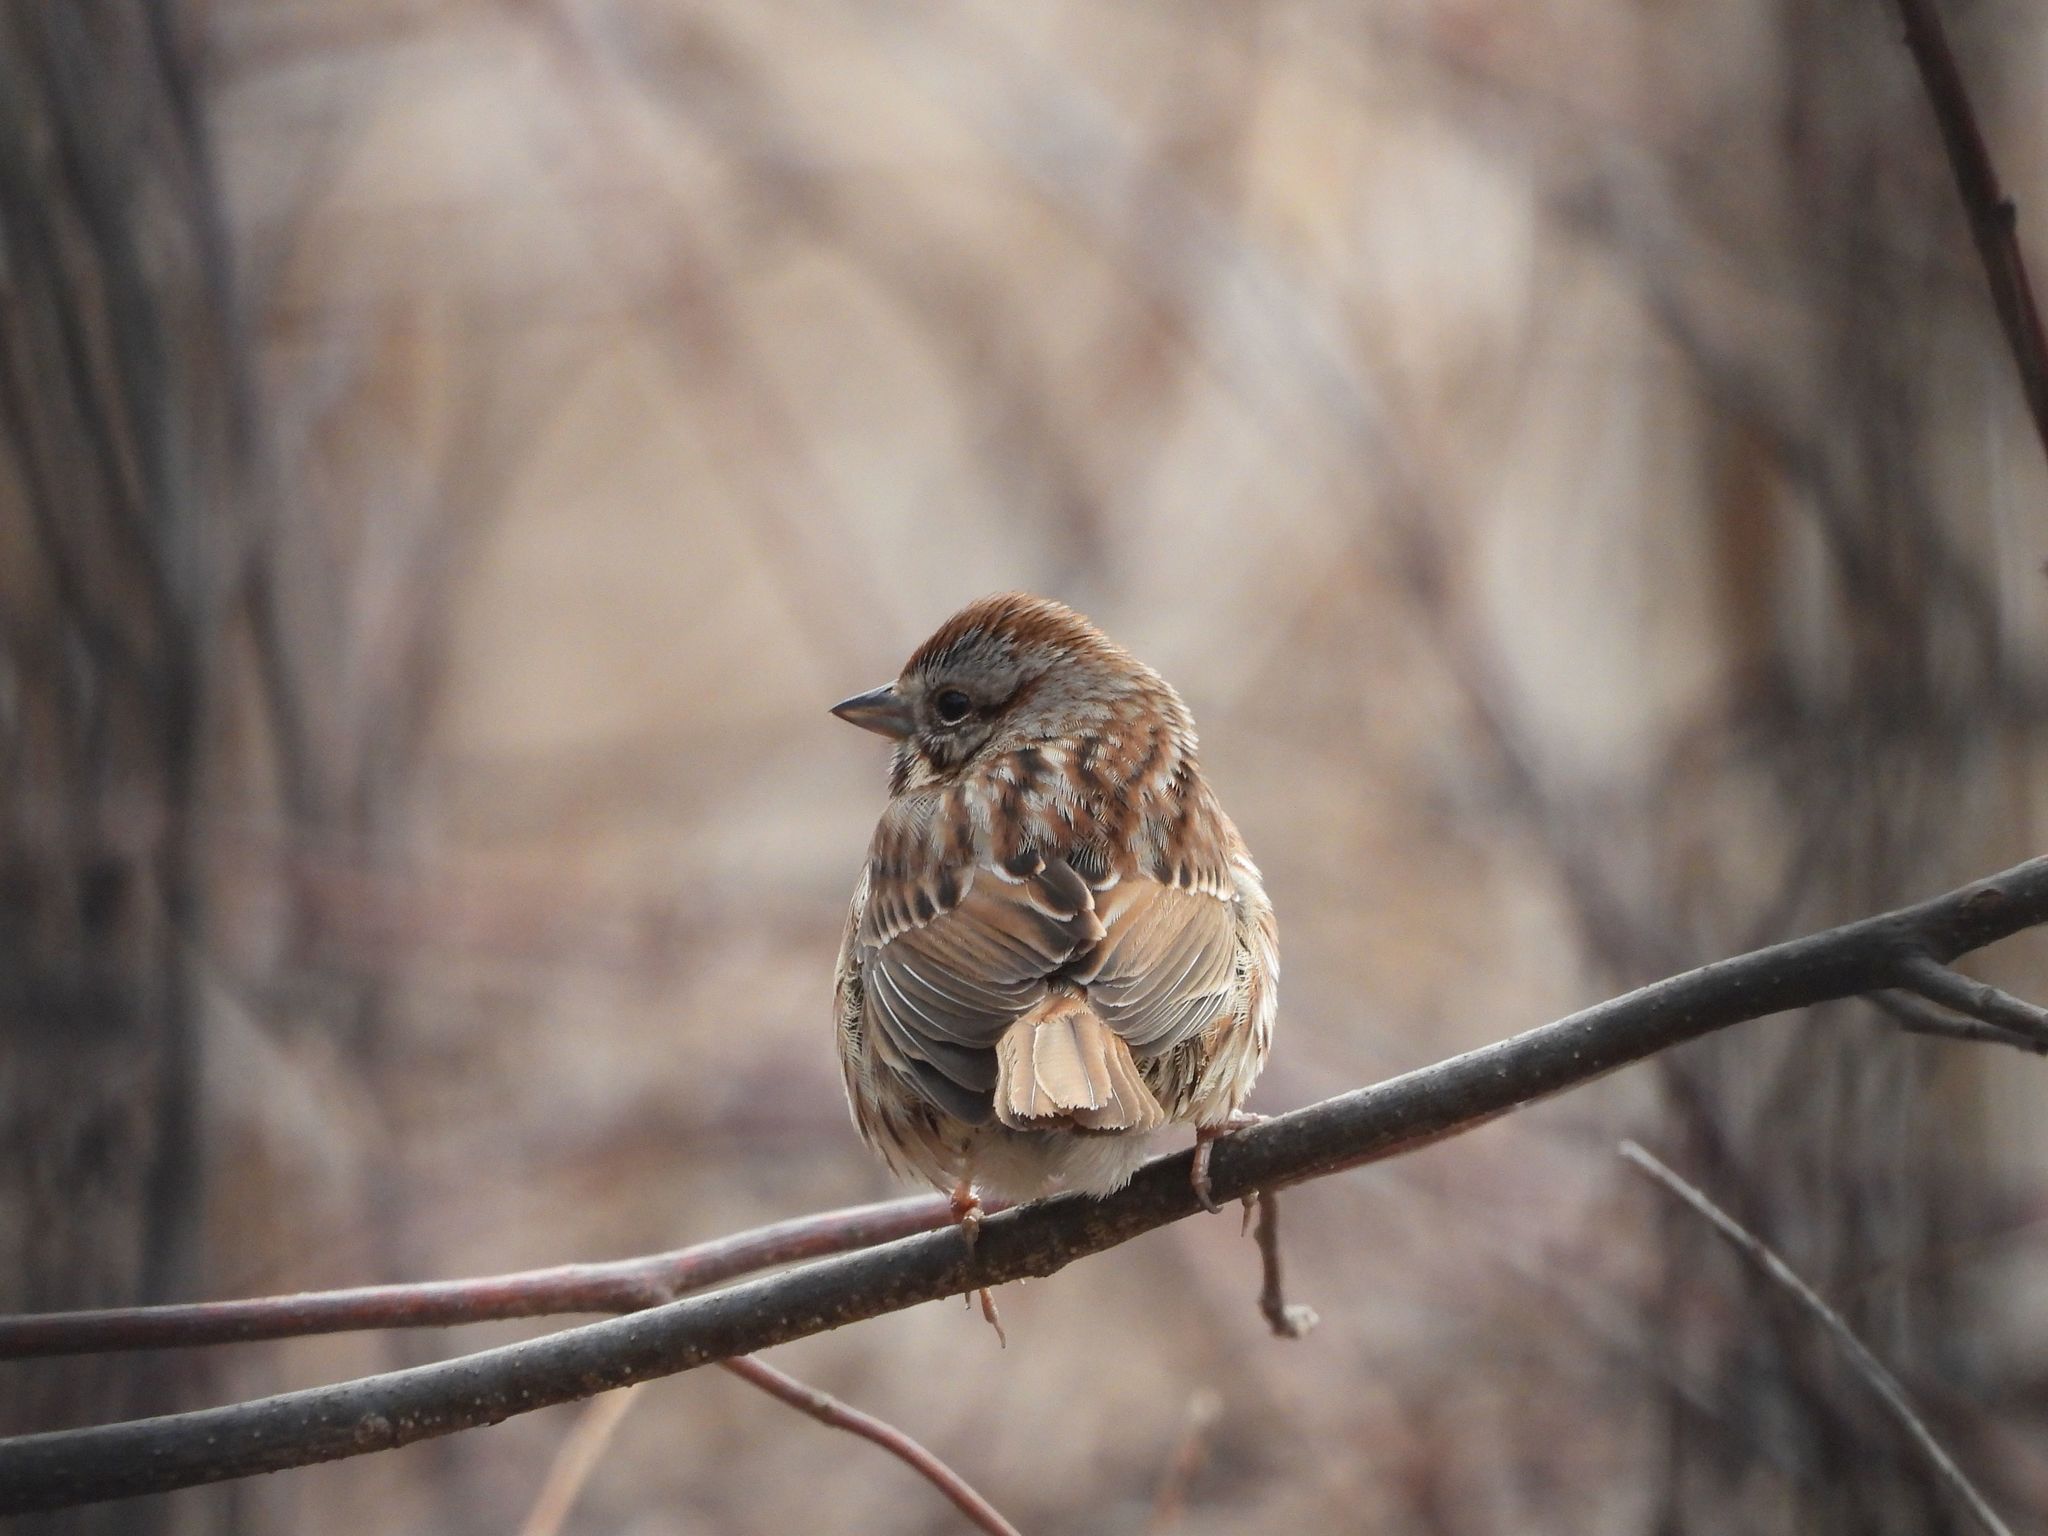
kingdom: Animalia
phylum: Chordata
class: Aves
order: Passeriformes
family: Passerellidae
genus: Melospiza
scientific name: Melospiza melodia
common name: Song sparrow
